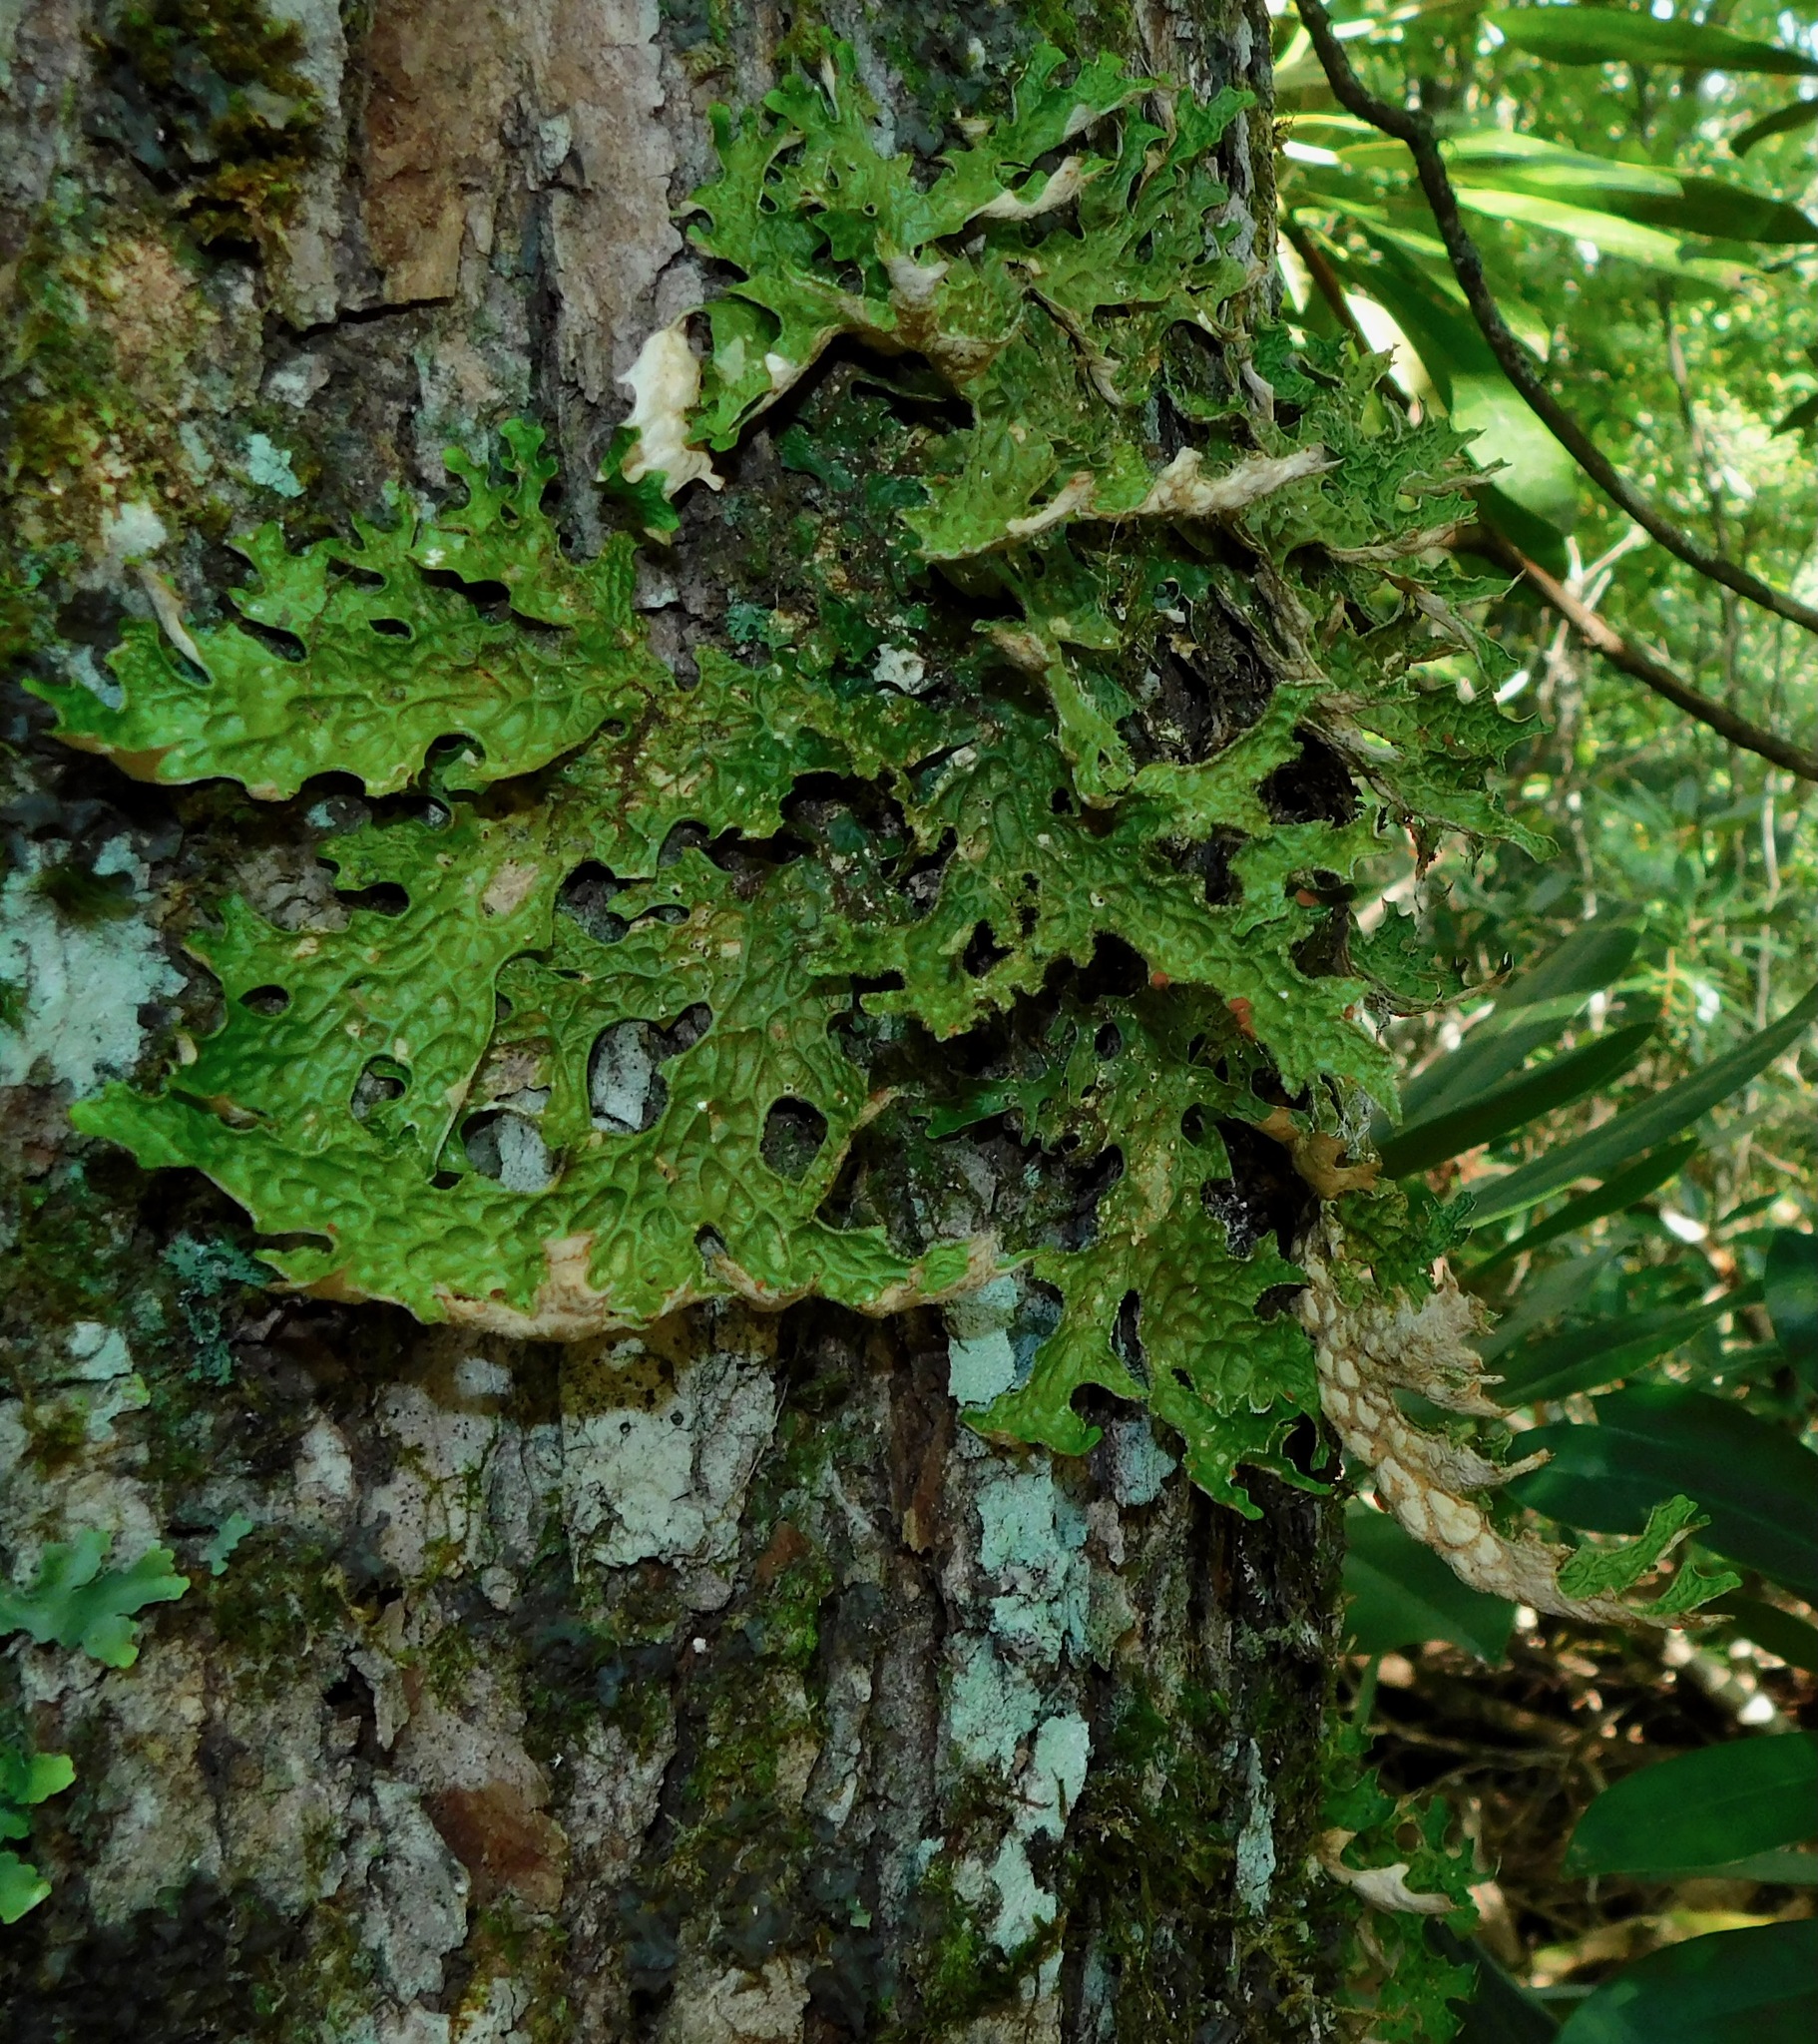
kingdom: Fungi
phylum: Ascomycota
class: Lecanoromycetes
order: Peltigerales
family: Lobariaceae
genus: Lobaria
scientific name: Lobaria pulmonaria
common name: Lungwort
